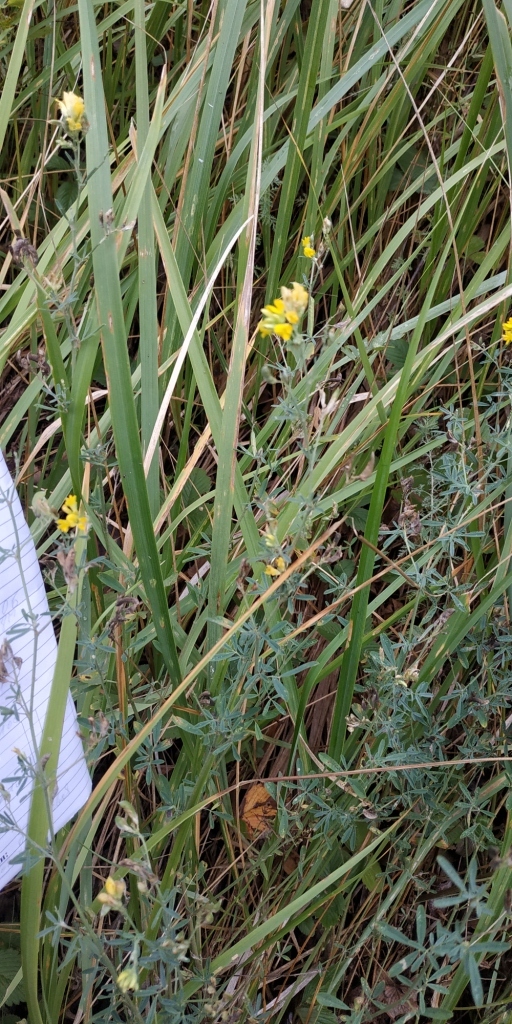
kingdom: Plantae
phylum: Tracheophyta
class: Magnoliopsida
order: Fabales
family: Fabaceae
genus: Medicago
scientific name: Medicago falcata
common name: Sickle medick
